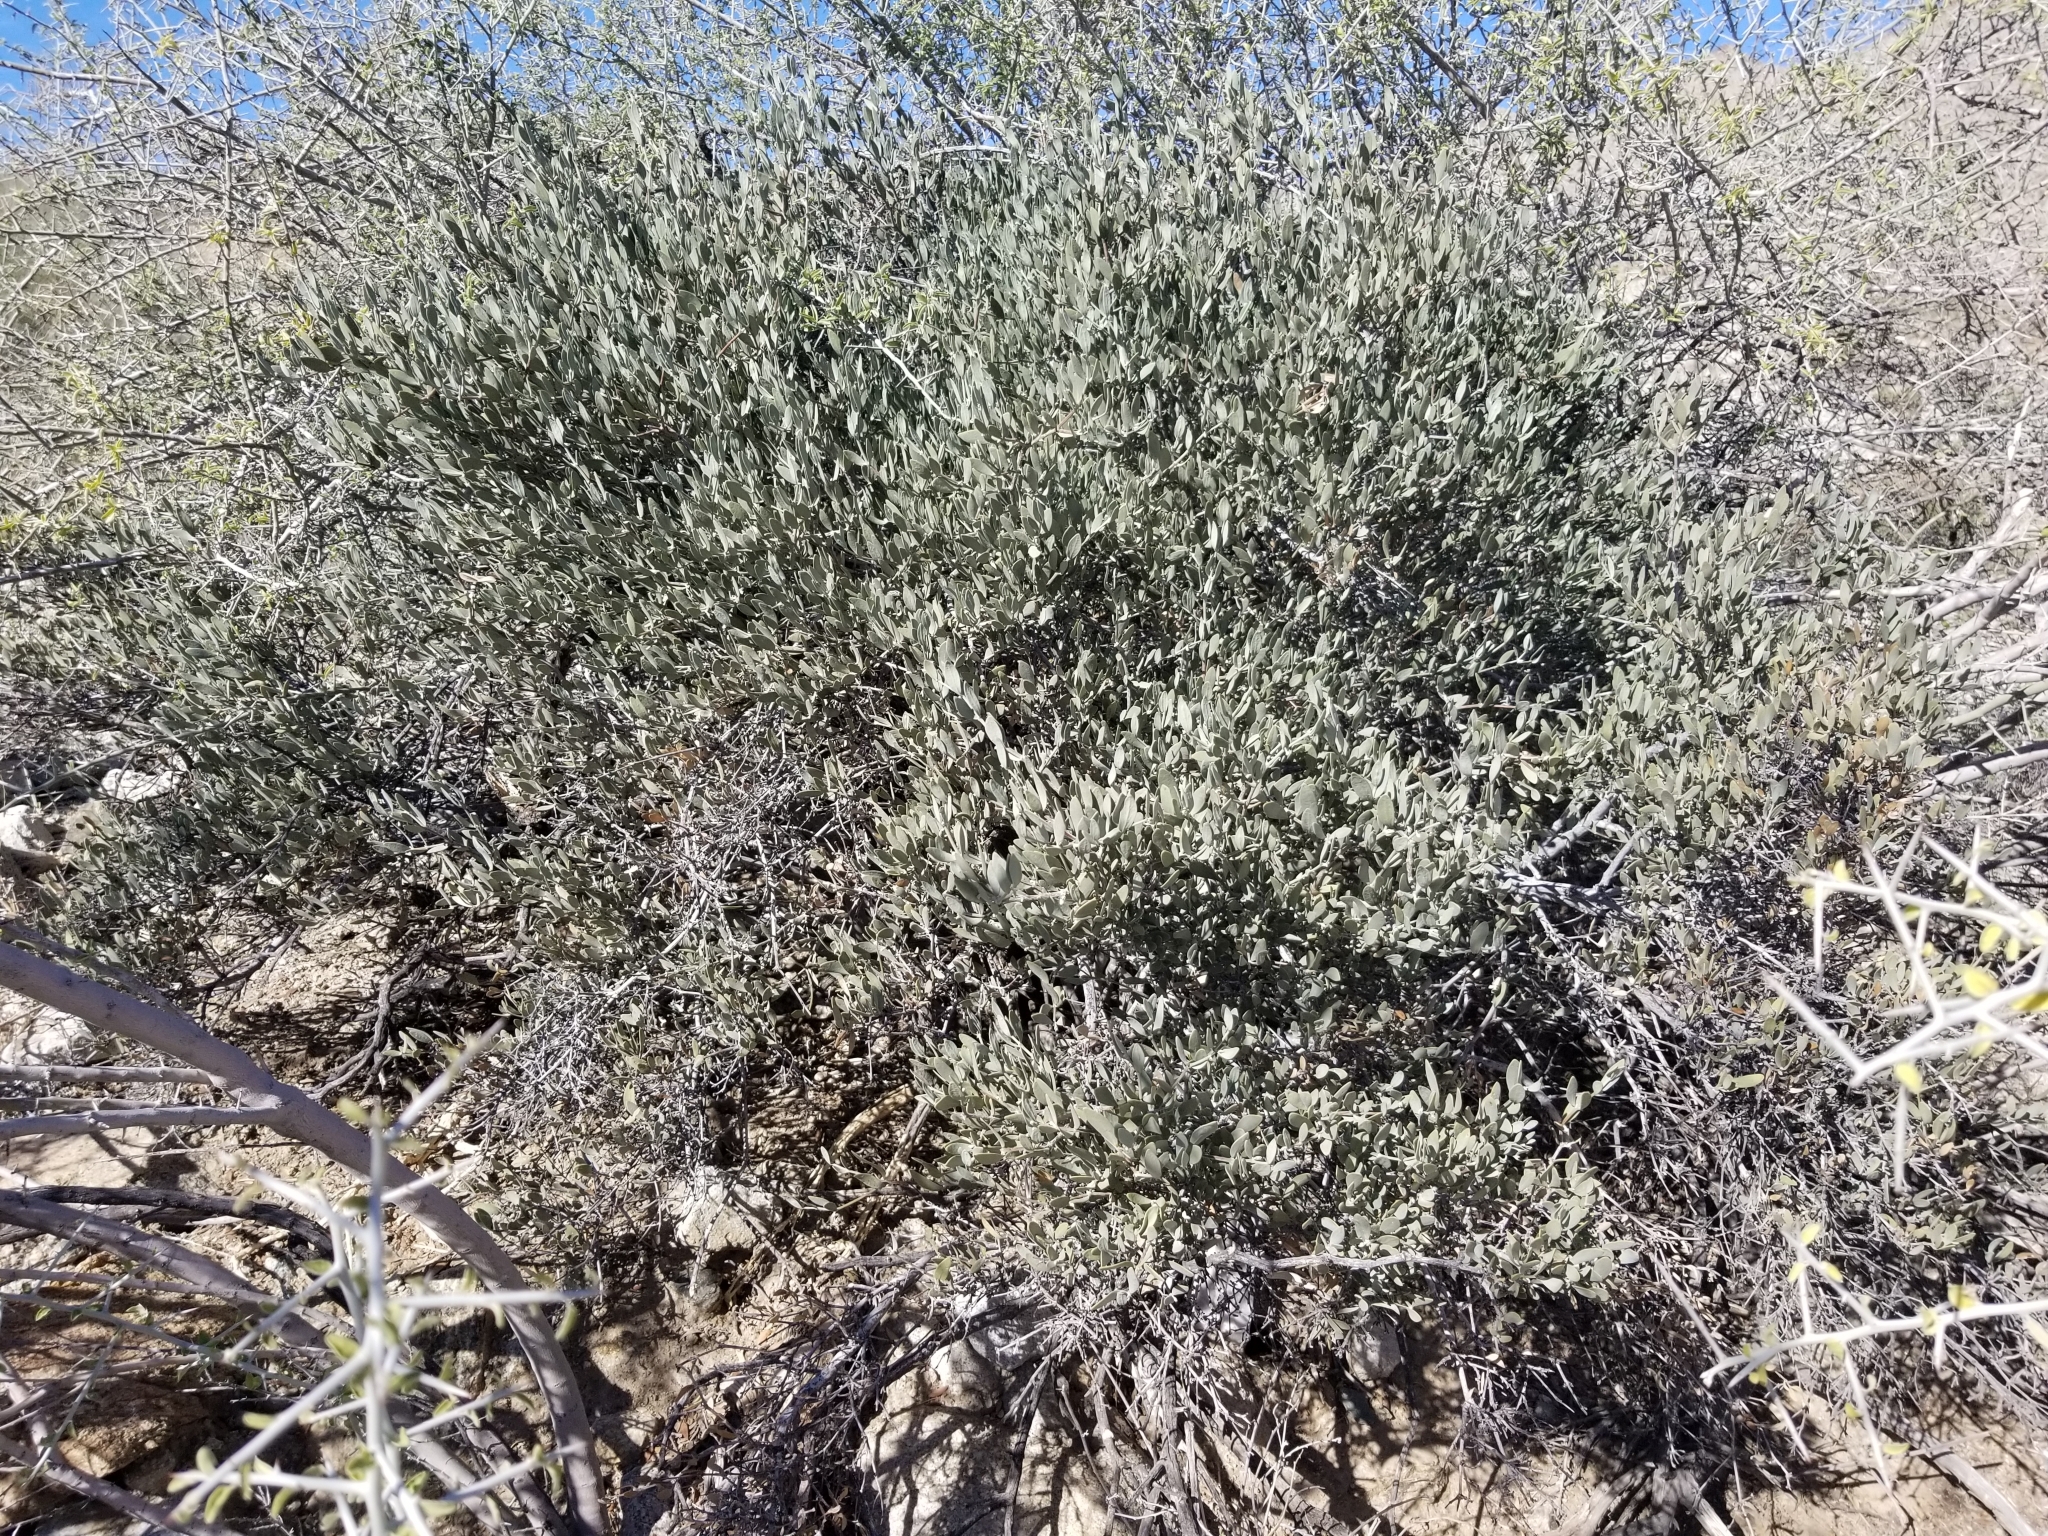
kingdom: Plantae
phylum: Tracheophyta
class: Magnoliopsida
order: Caryophyllales
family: Simmondsiaceae
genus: Simmondsia
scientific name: Simmondsia chinensis
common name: Jojoba
